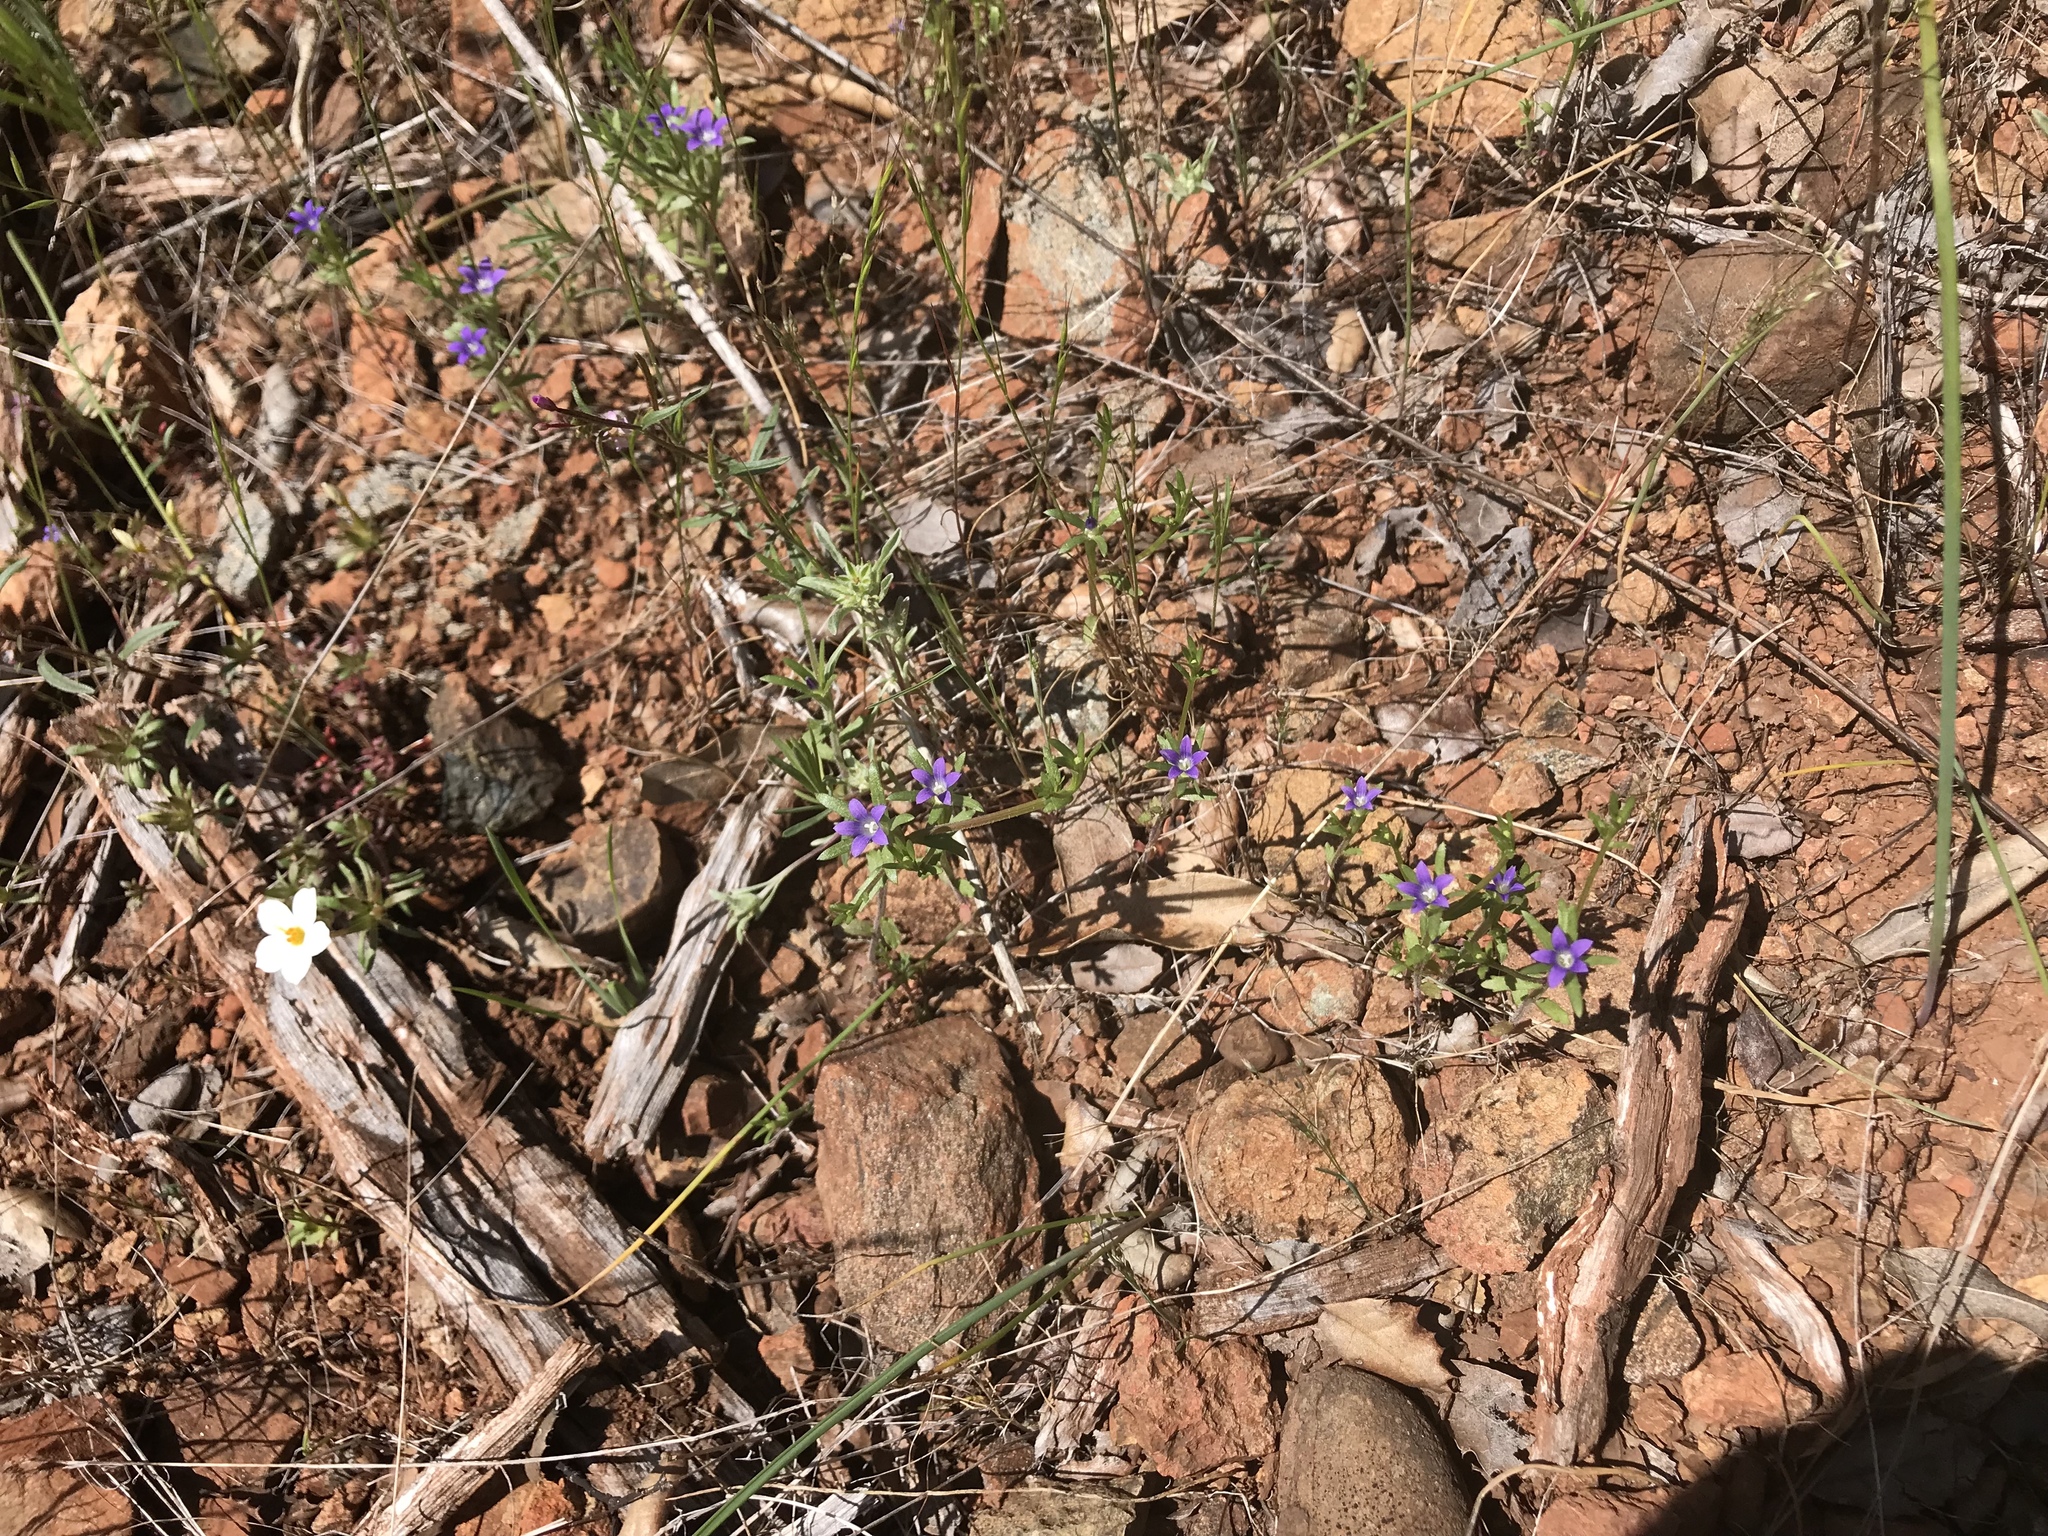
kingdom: Plantae
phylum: Tracheophyta
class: Magnoliopsida
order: Asterales
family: Campanulaceae
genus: Githopsis
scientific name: Githopsis specularioides
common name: Common bluecup
